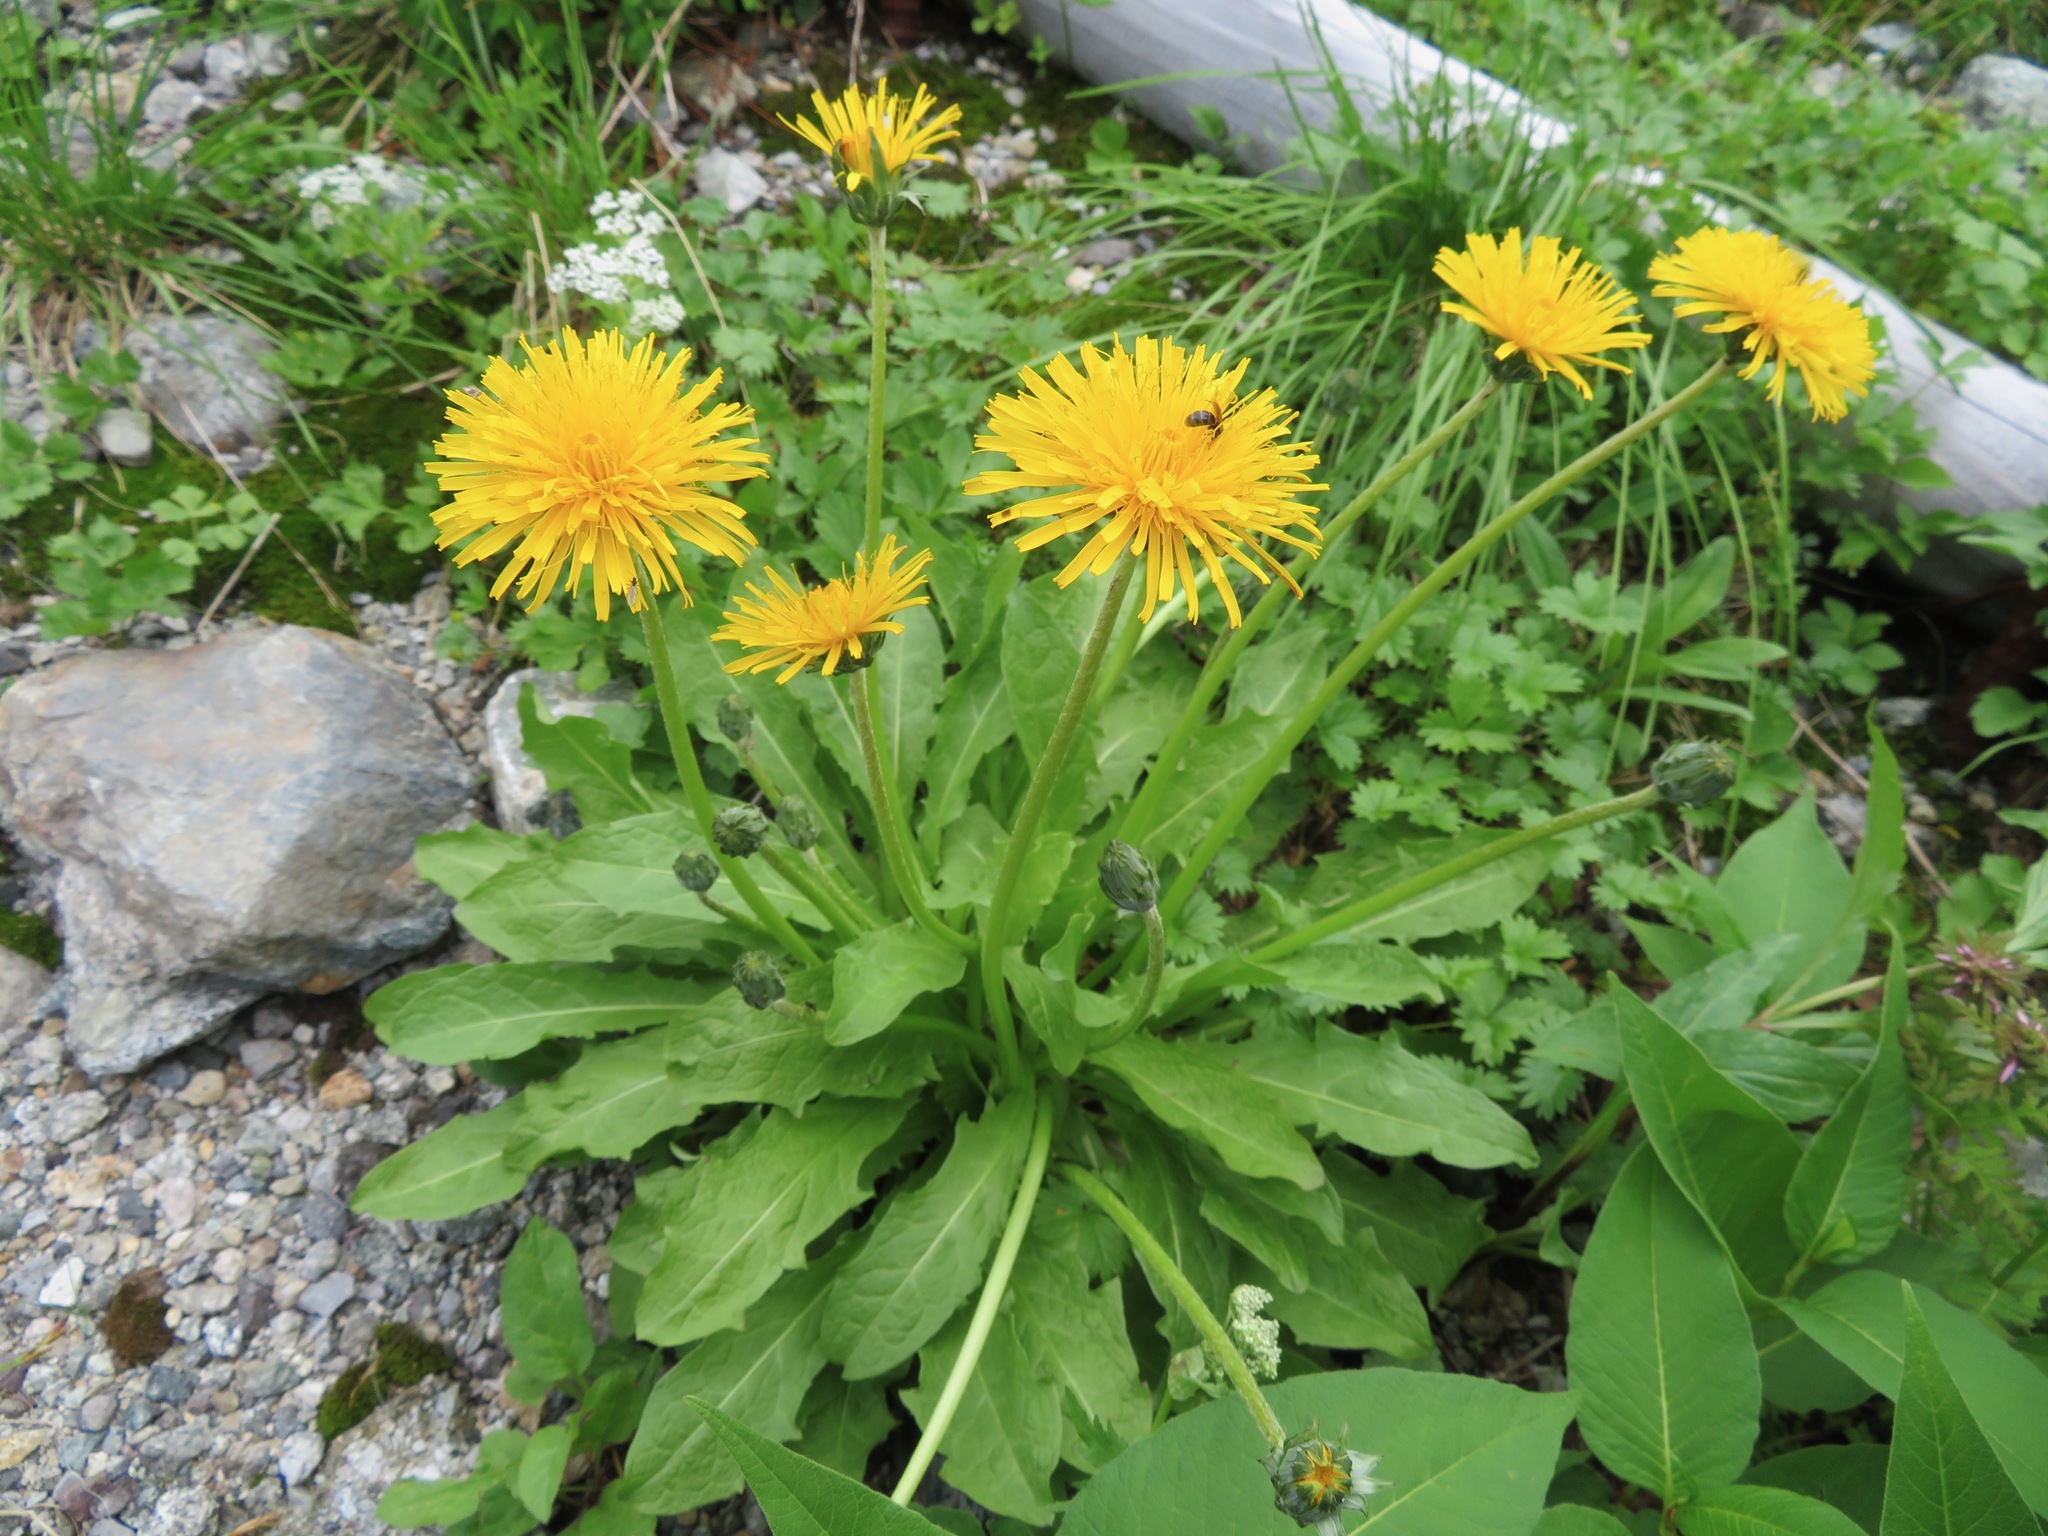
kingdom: Plantae
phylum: Tracheophyta
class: Magnoliopsida
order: Asterales
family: Asteraceae
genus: Taraxacum
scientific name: Taraxacum alpicola
